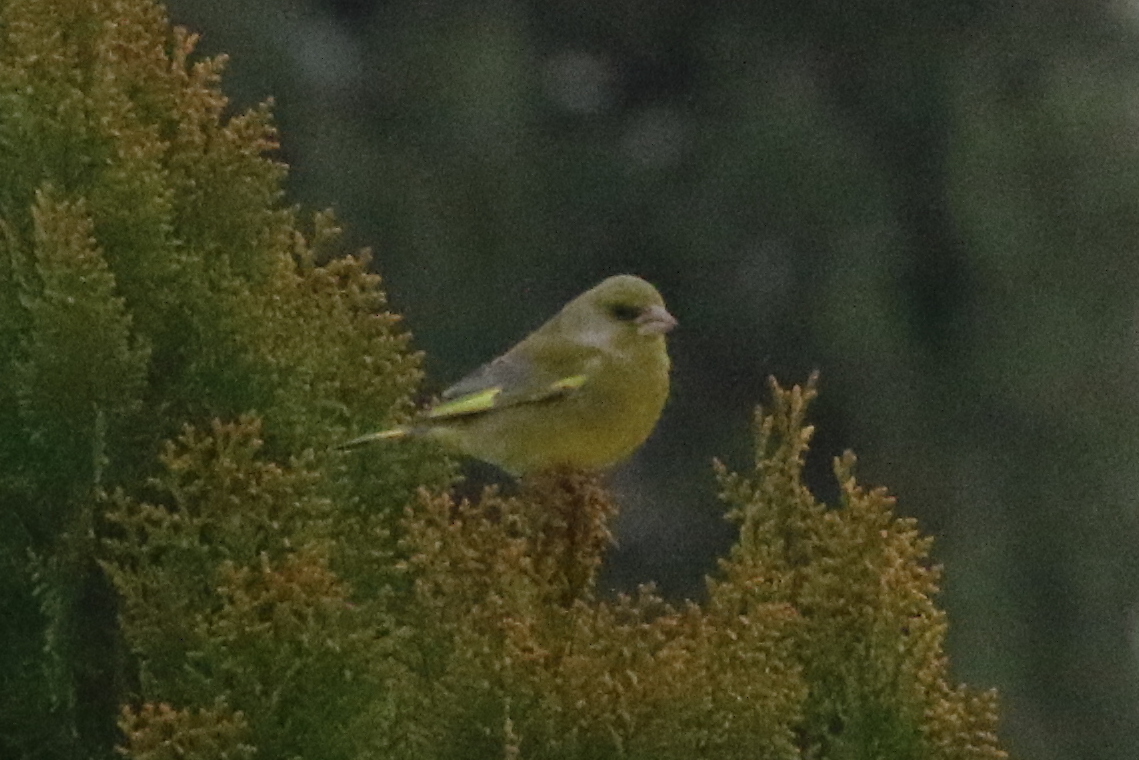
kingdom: Plantae
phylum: Tracheophyta
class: Liliopsida
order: Poales
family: Poaceae
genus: Chloris
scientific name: Chloris chloris
